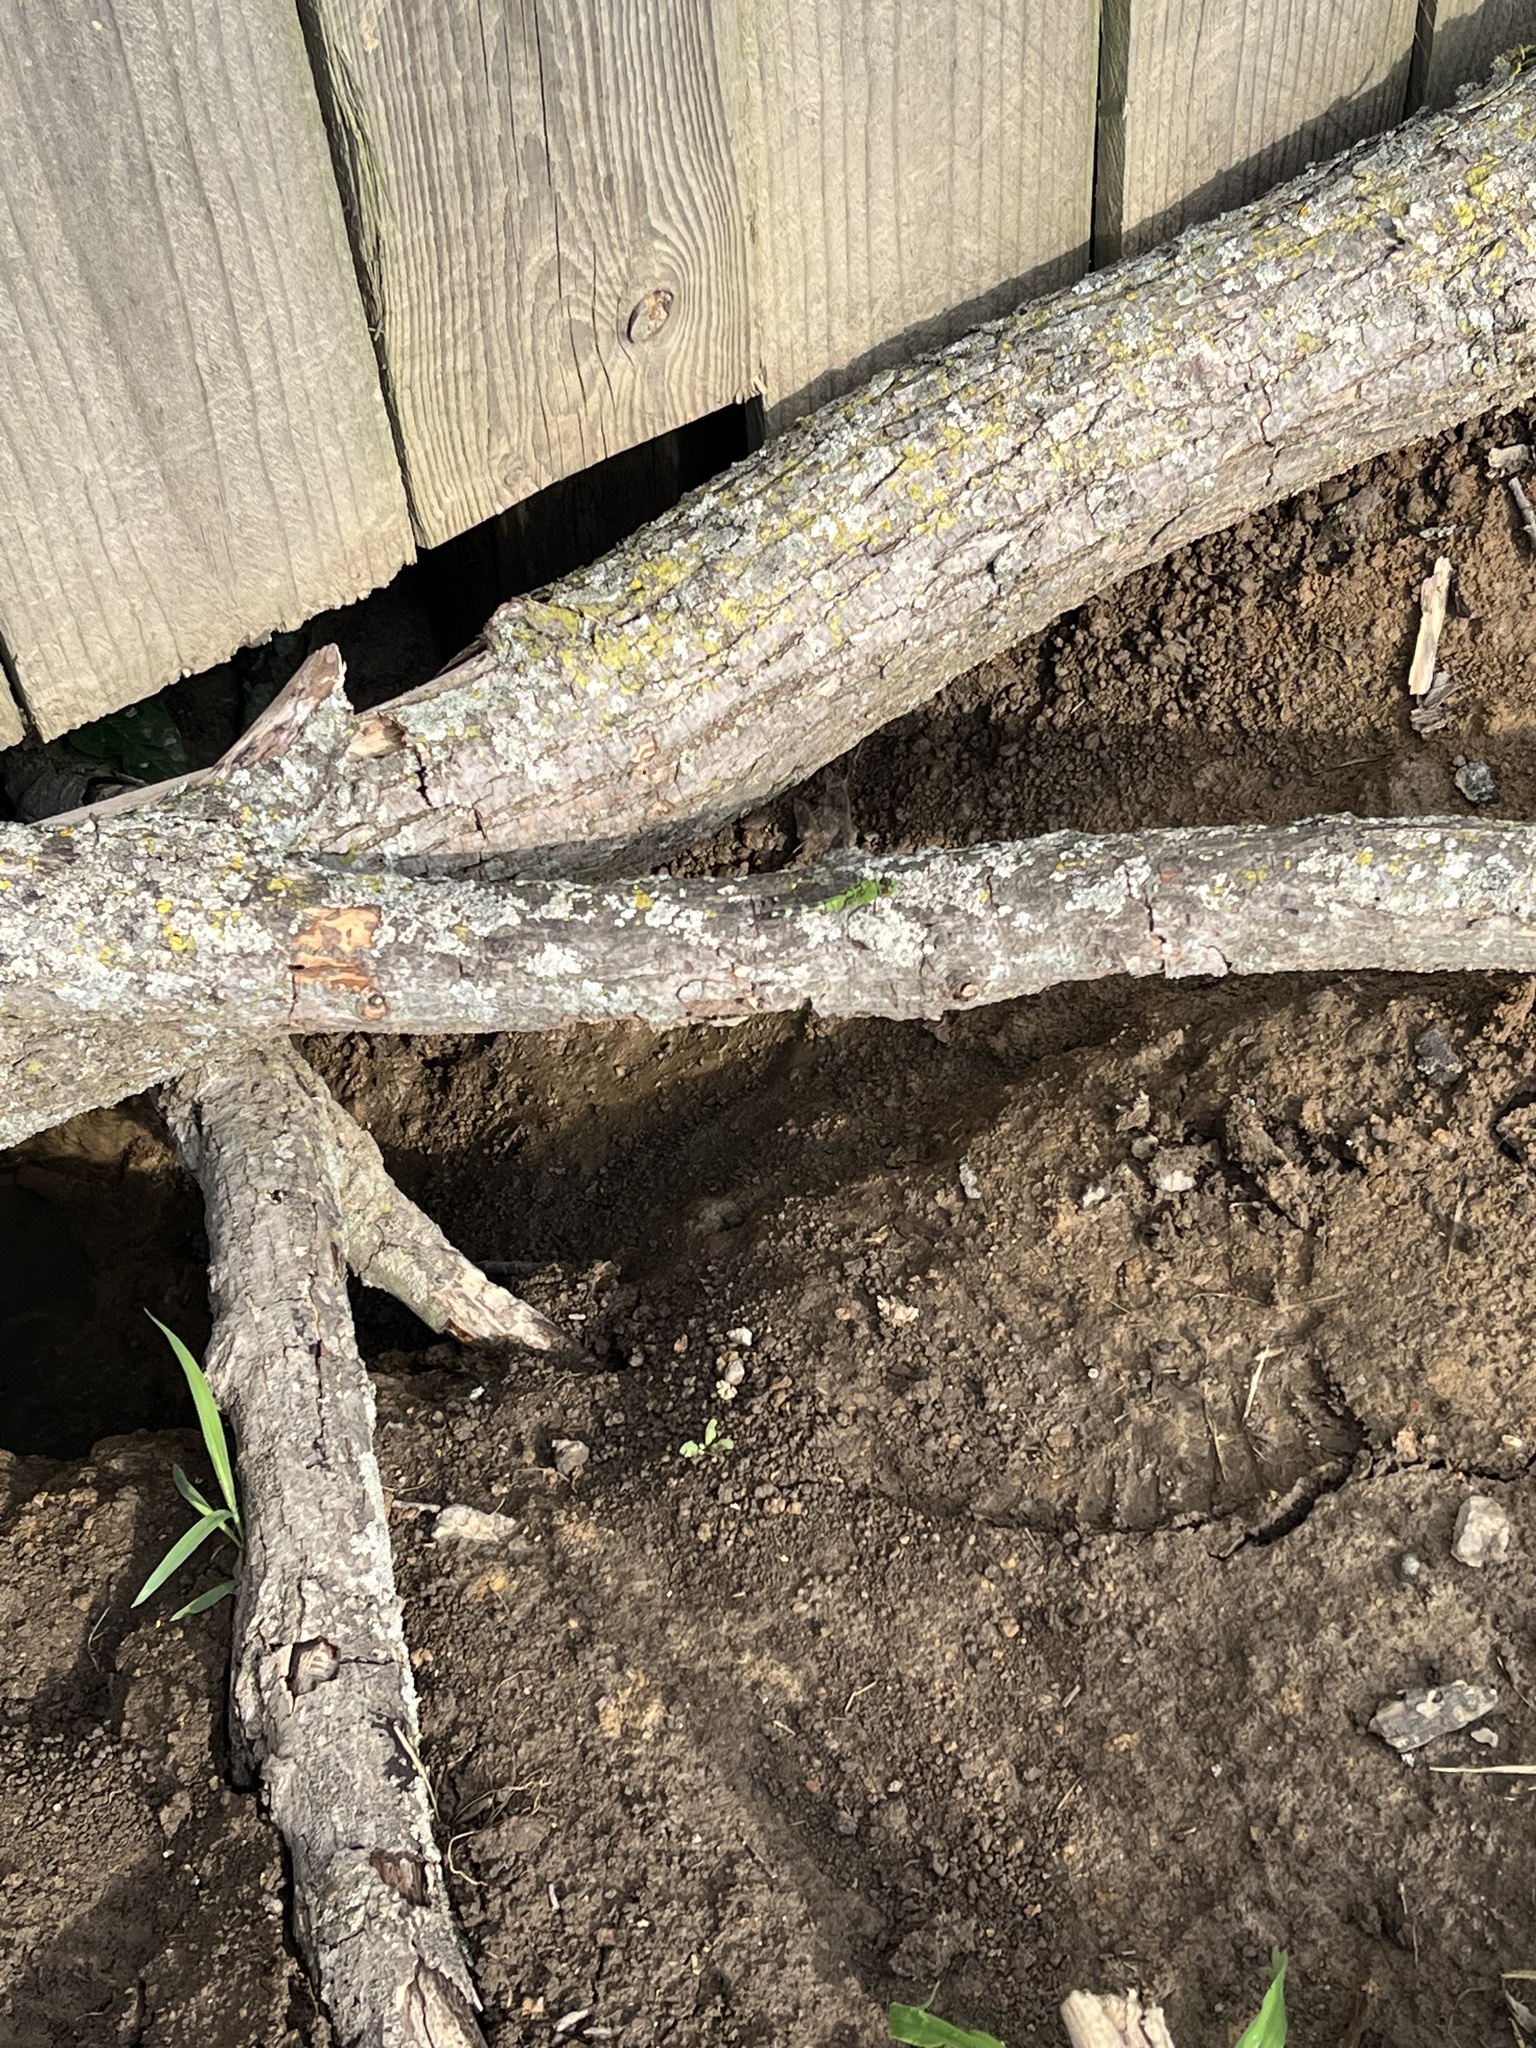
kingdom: Animalia
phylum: Arthropoda
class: Insecta
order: Odonata
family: Libellulidae
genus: Erythemis
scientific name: Erythemis simplicicollis
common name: Eastern pondhawk
